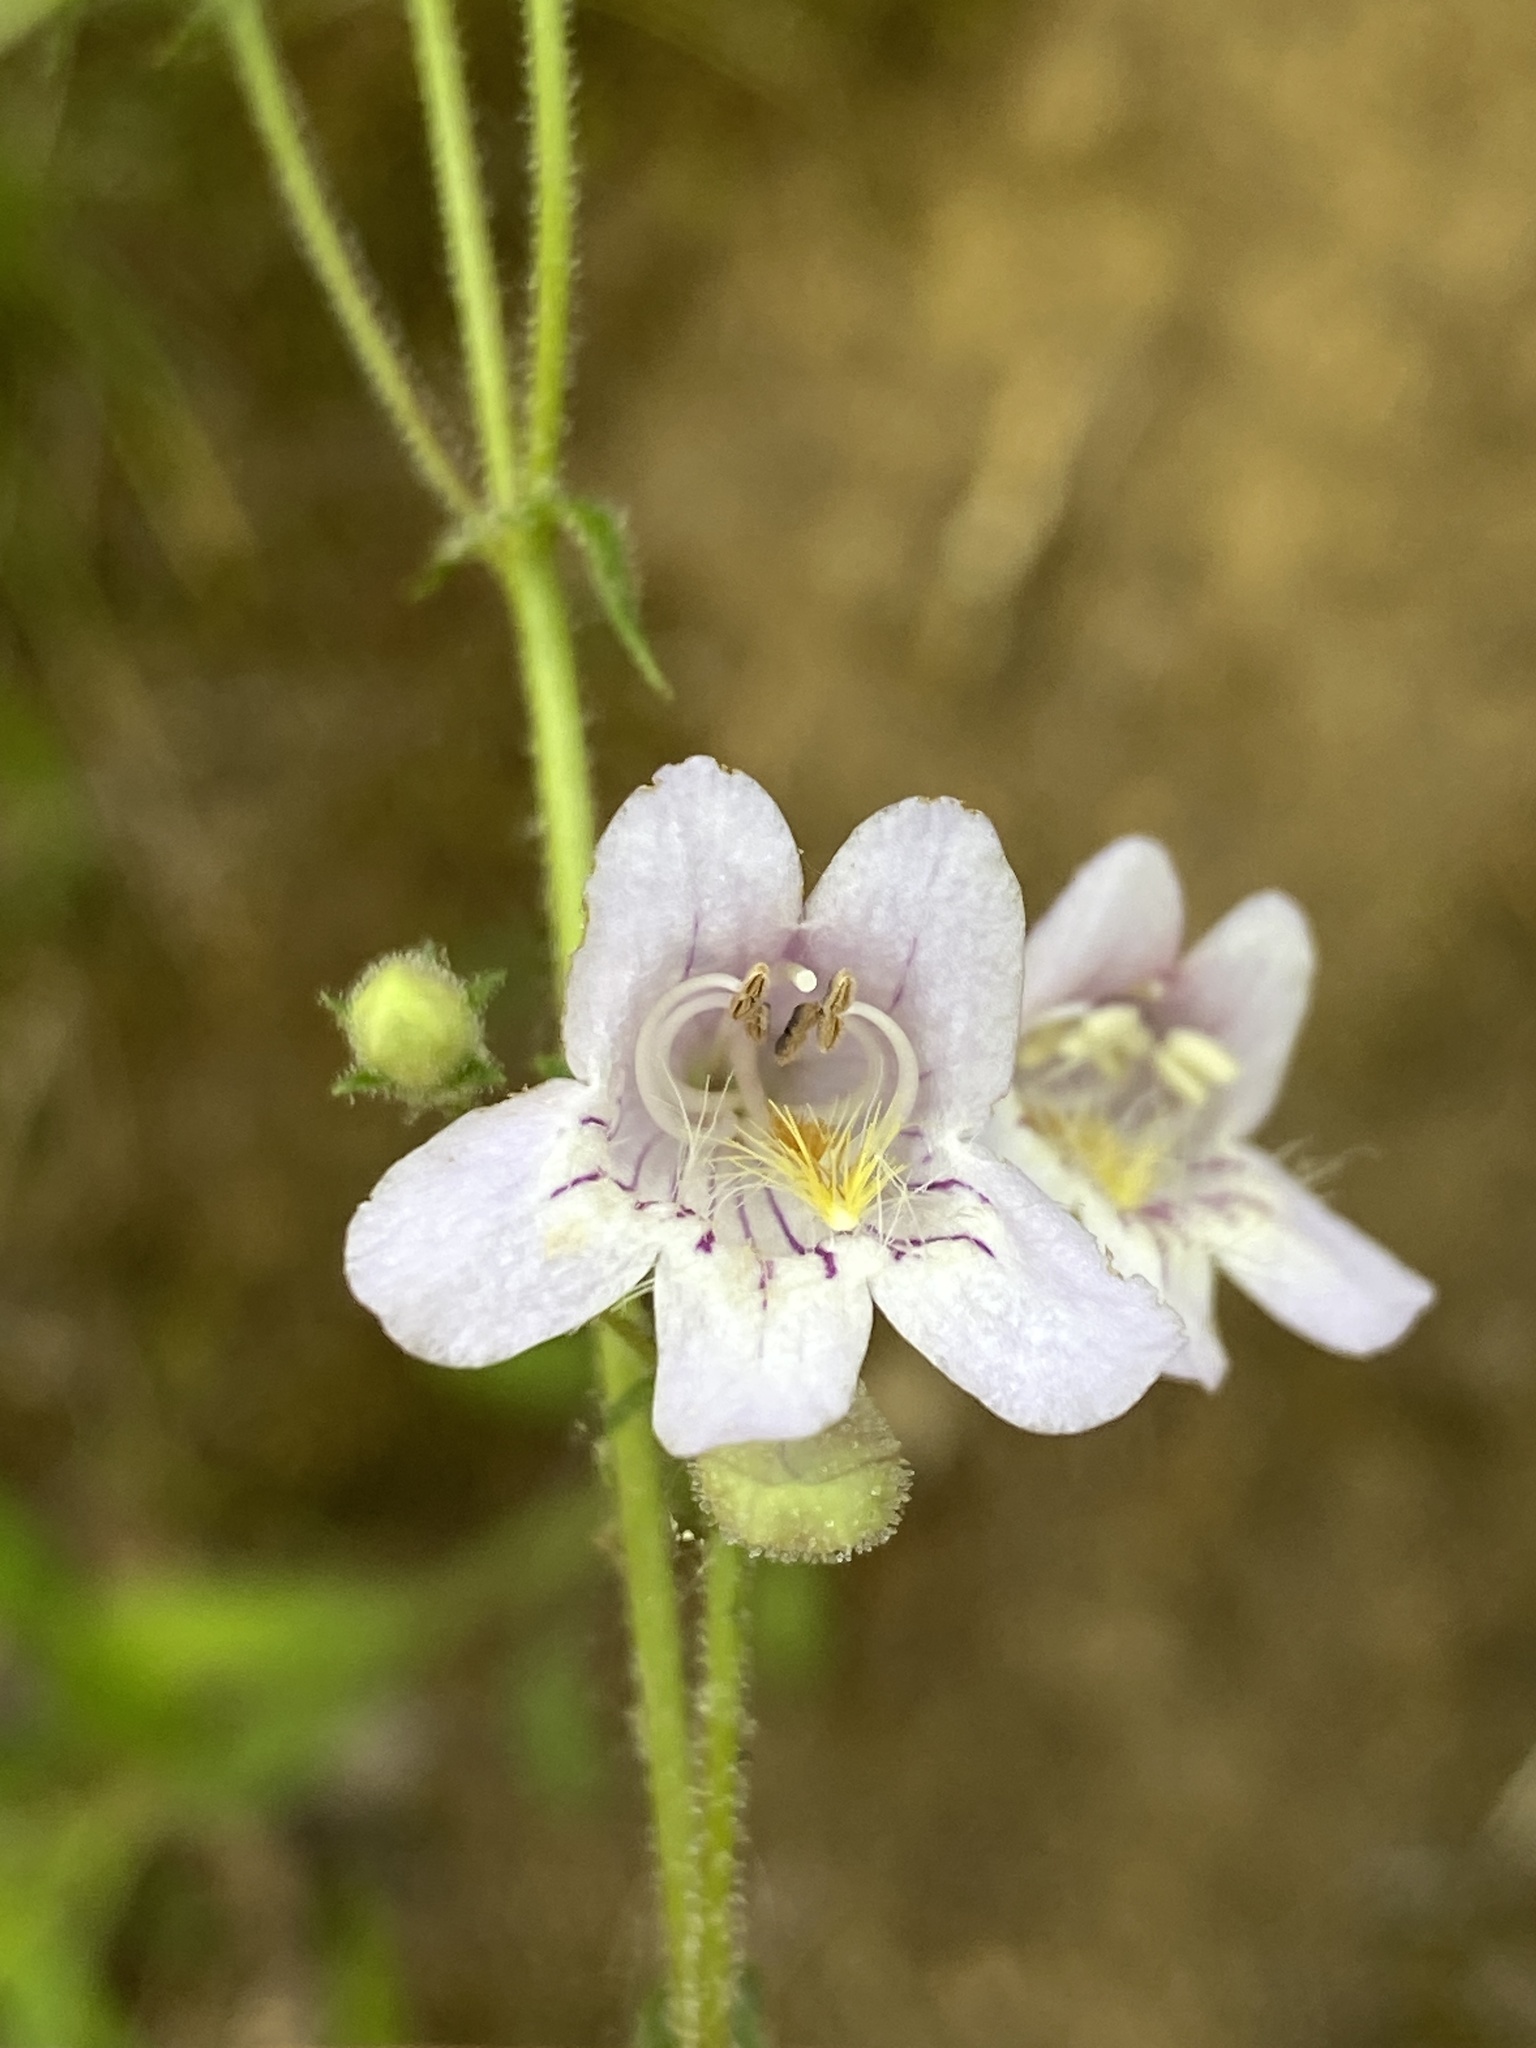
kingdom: Plantae
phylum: Tracheophyta
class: Magnoliopsida
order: Lamiales
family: Plantaginaceae
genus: Penstemon
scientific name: Penstemon laevigatus
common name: Eastern beardtongue
